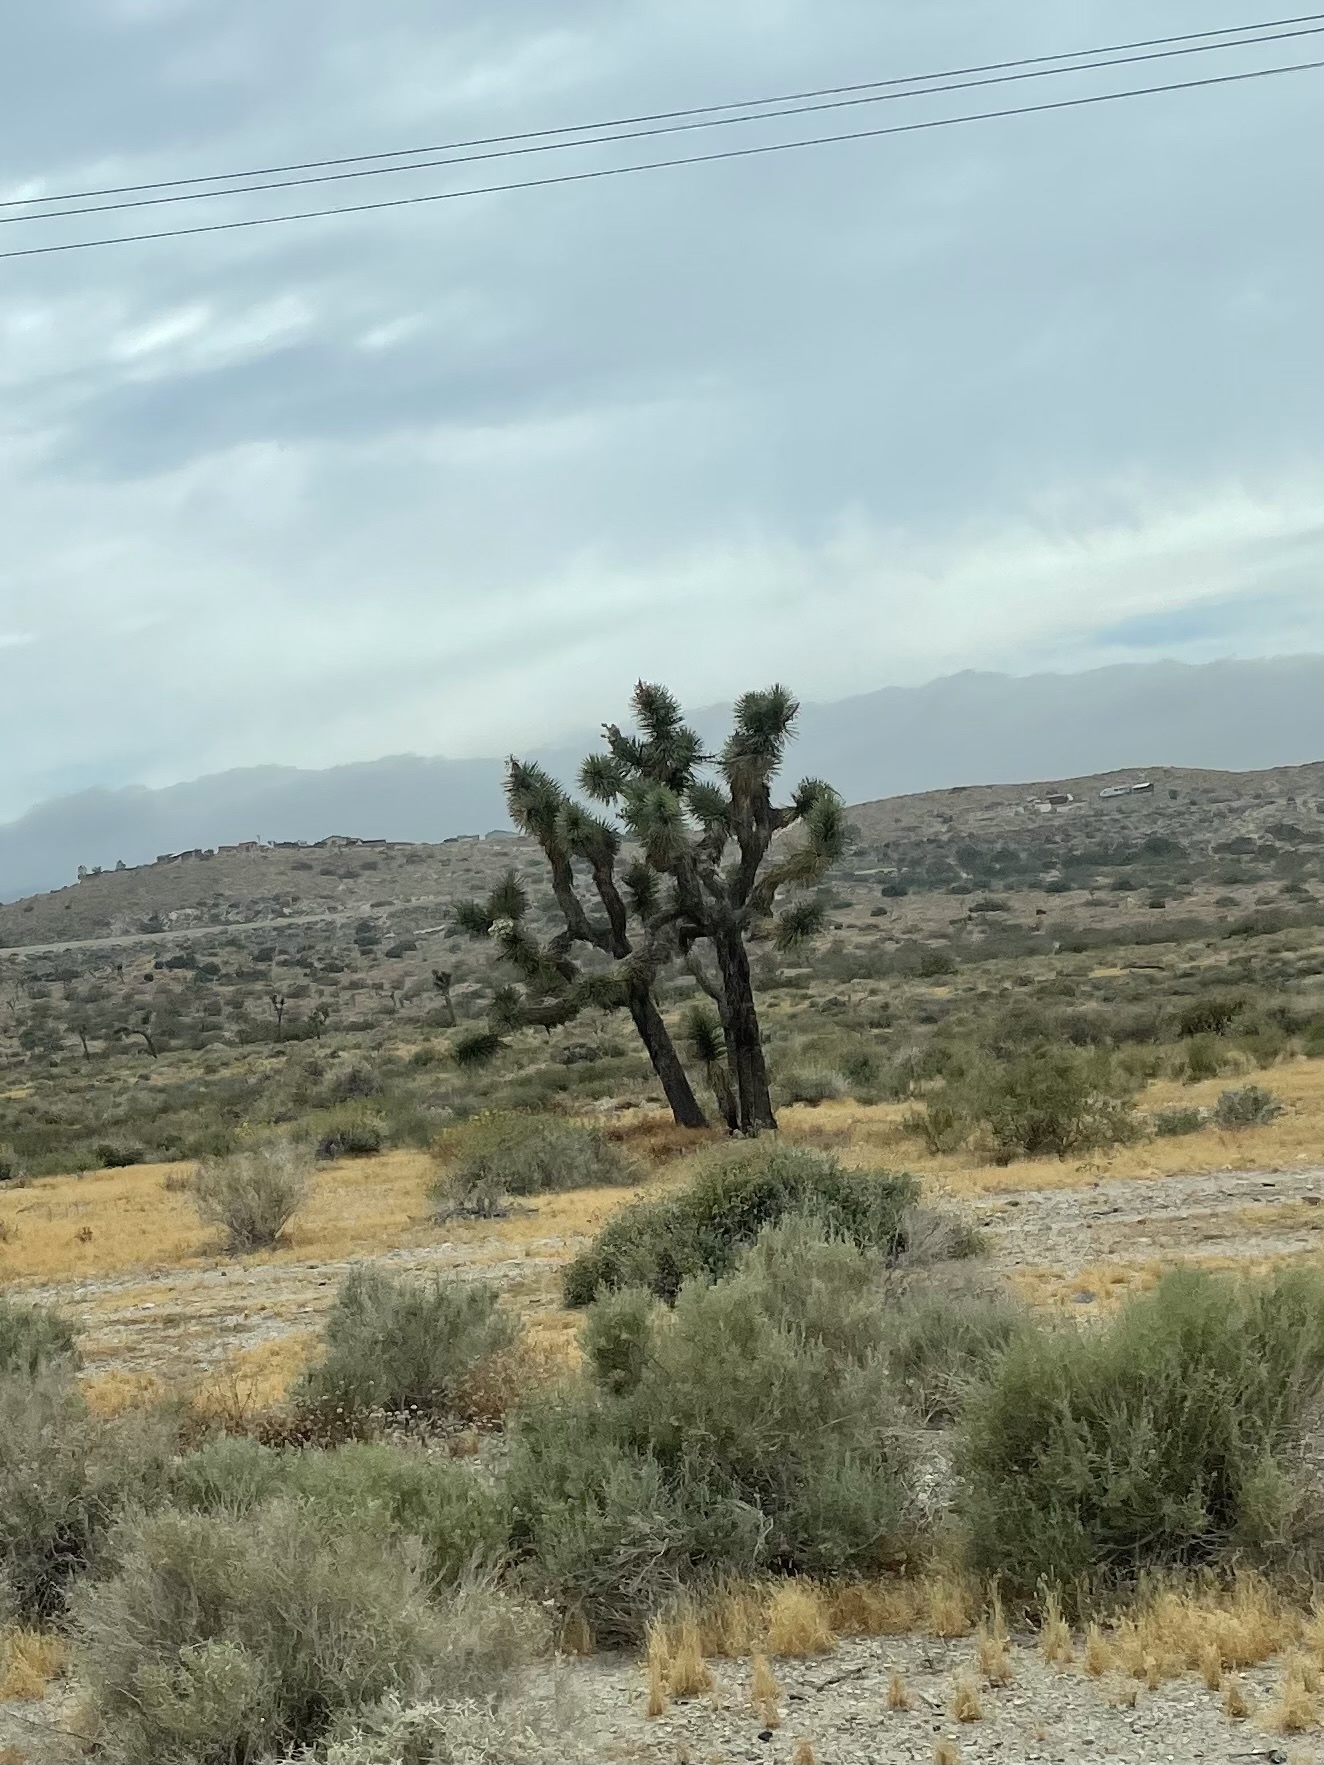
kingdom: Plantae
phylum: Tracheophyta
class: Liliopsida
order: Asparagales
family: Asparagaceae
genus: Yucca
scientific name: Yucca brevifolia
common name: Joshua tree
